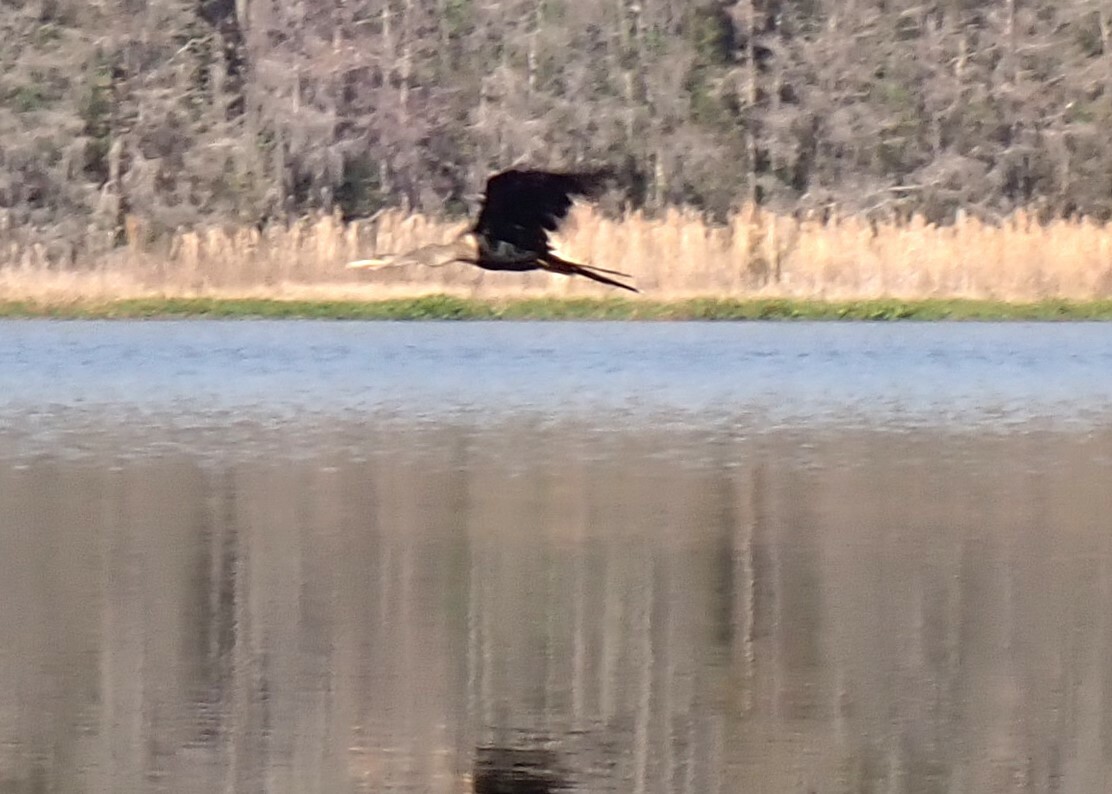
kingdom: Animalia
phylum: Chordata
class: Aves
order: Suliformes
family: Anhingidae
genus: Anhinga
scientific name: Anhinga anhinga
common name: Anhinga
